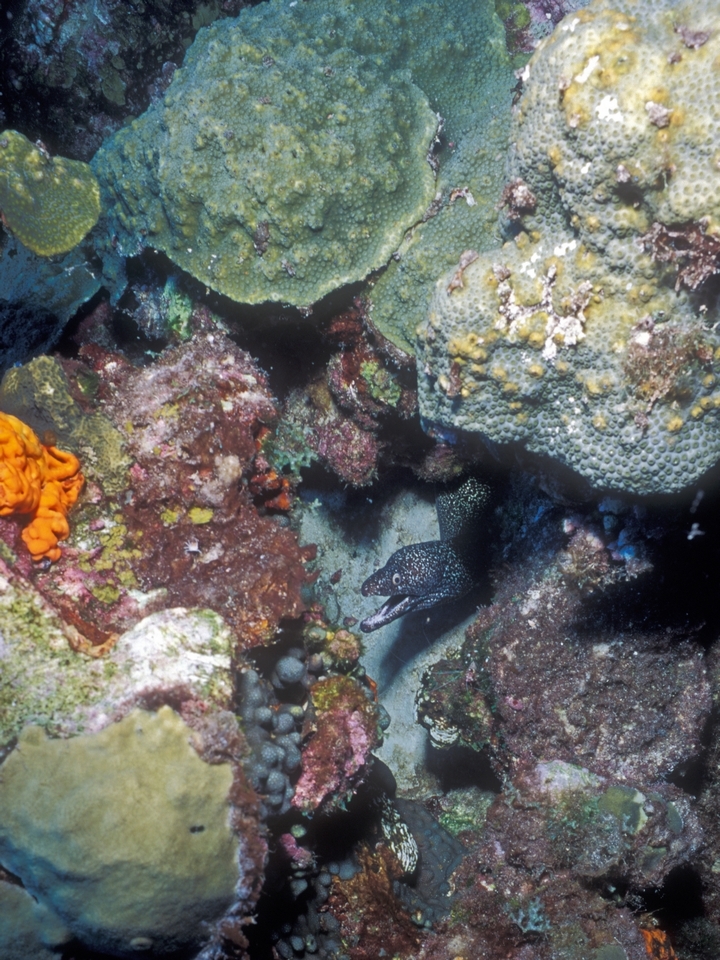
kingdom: Animalia
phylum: Chordata
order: Anguilliformes
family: Muraenidae
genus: Gymnothorax
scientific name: Gymnothorax moringa
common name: Spotted moray
